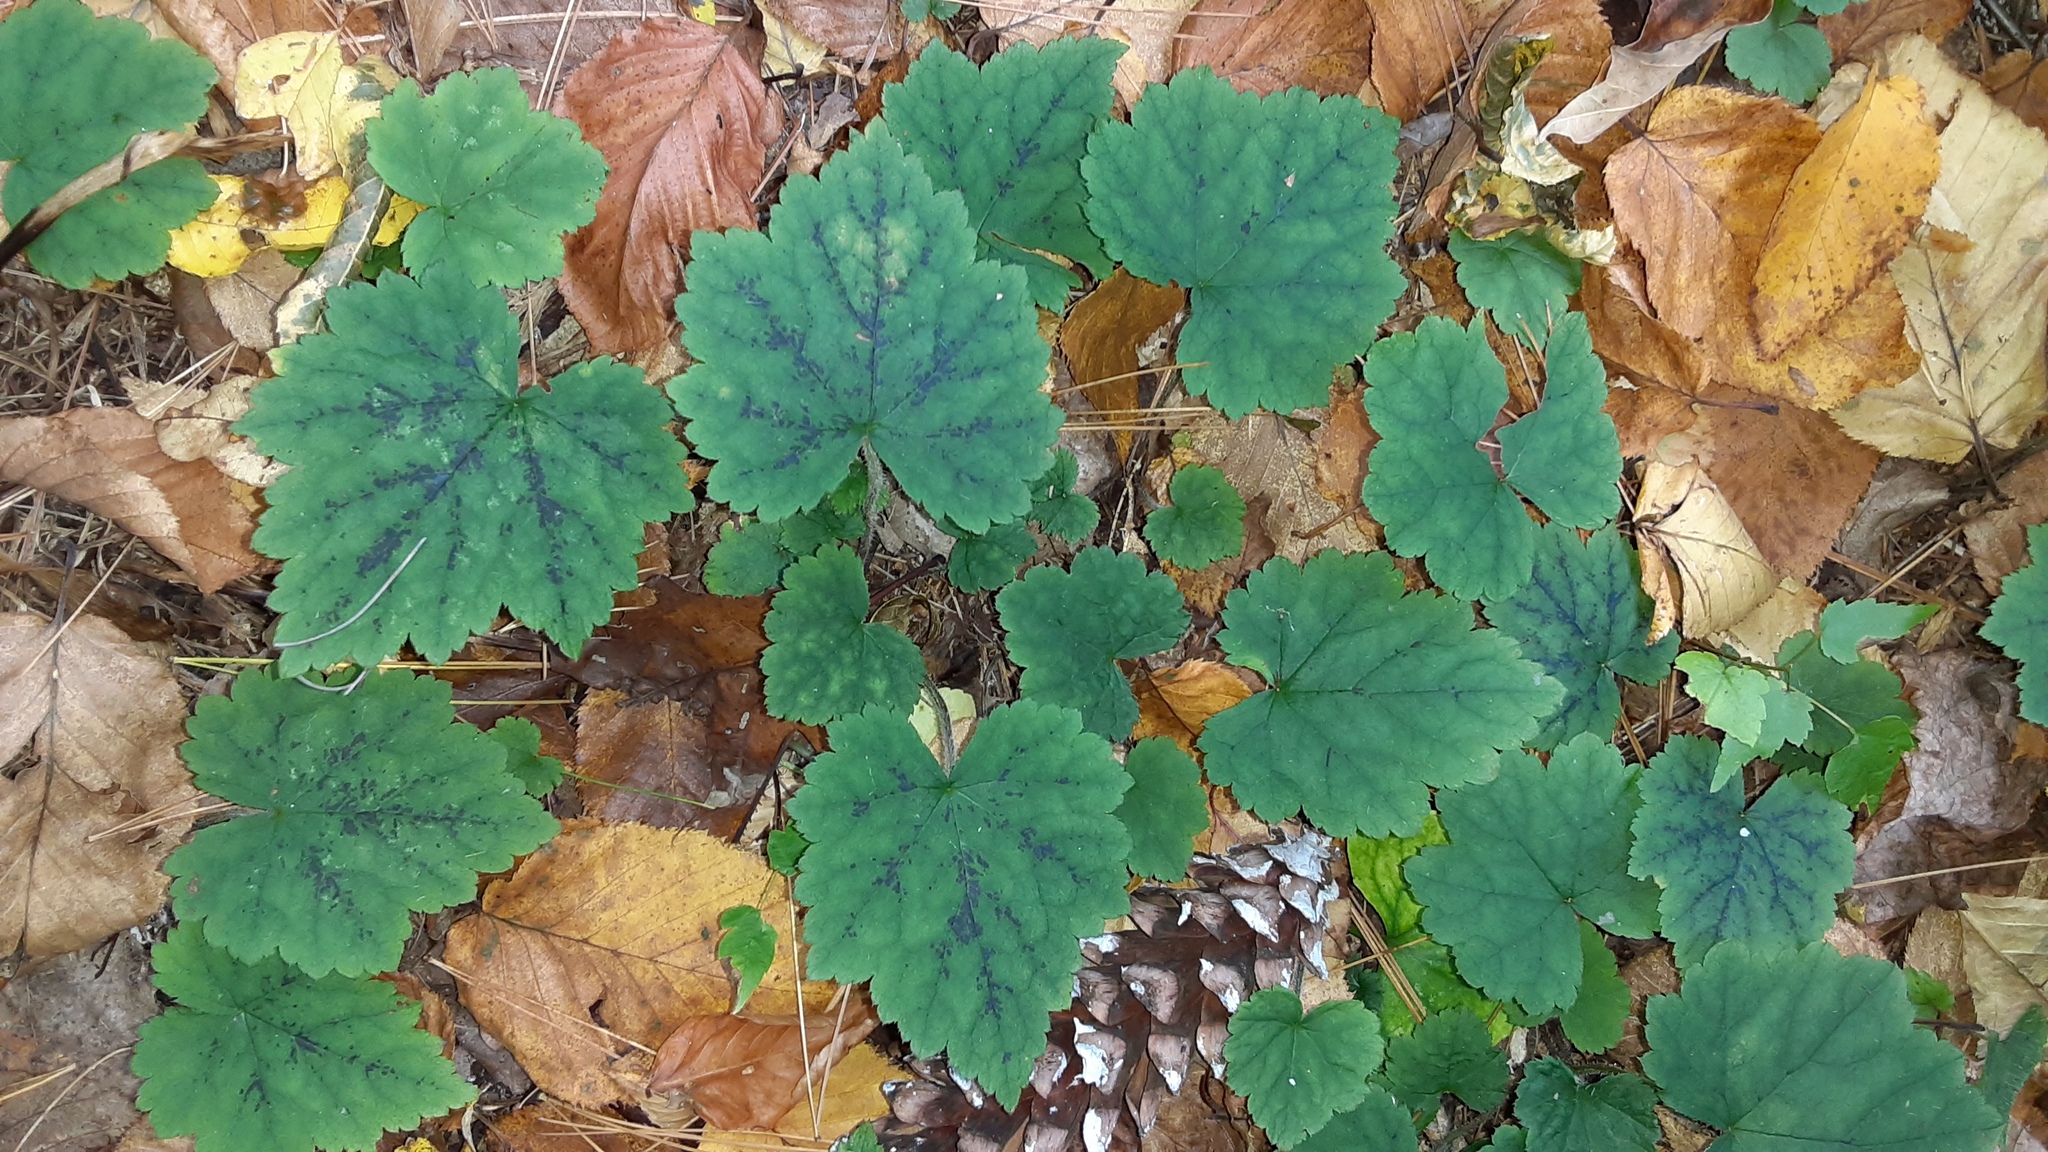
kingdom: Plantae
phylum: Tracheophyta
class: Magnoliopsida
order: Saxifragales
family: Saxifragaceae
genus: Tiarella
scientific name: Tiarella stolonifera
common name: Stoloniferous foamflower
